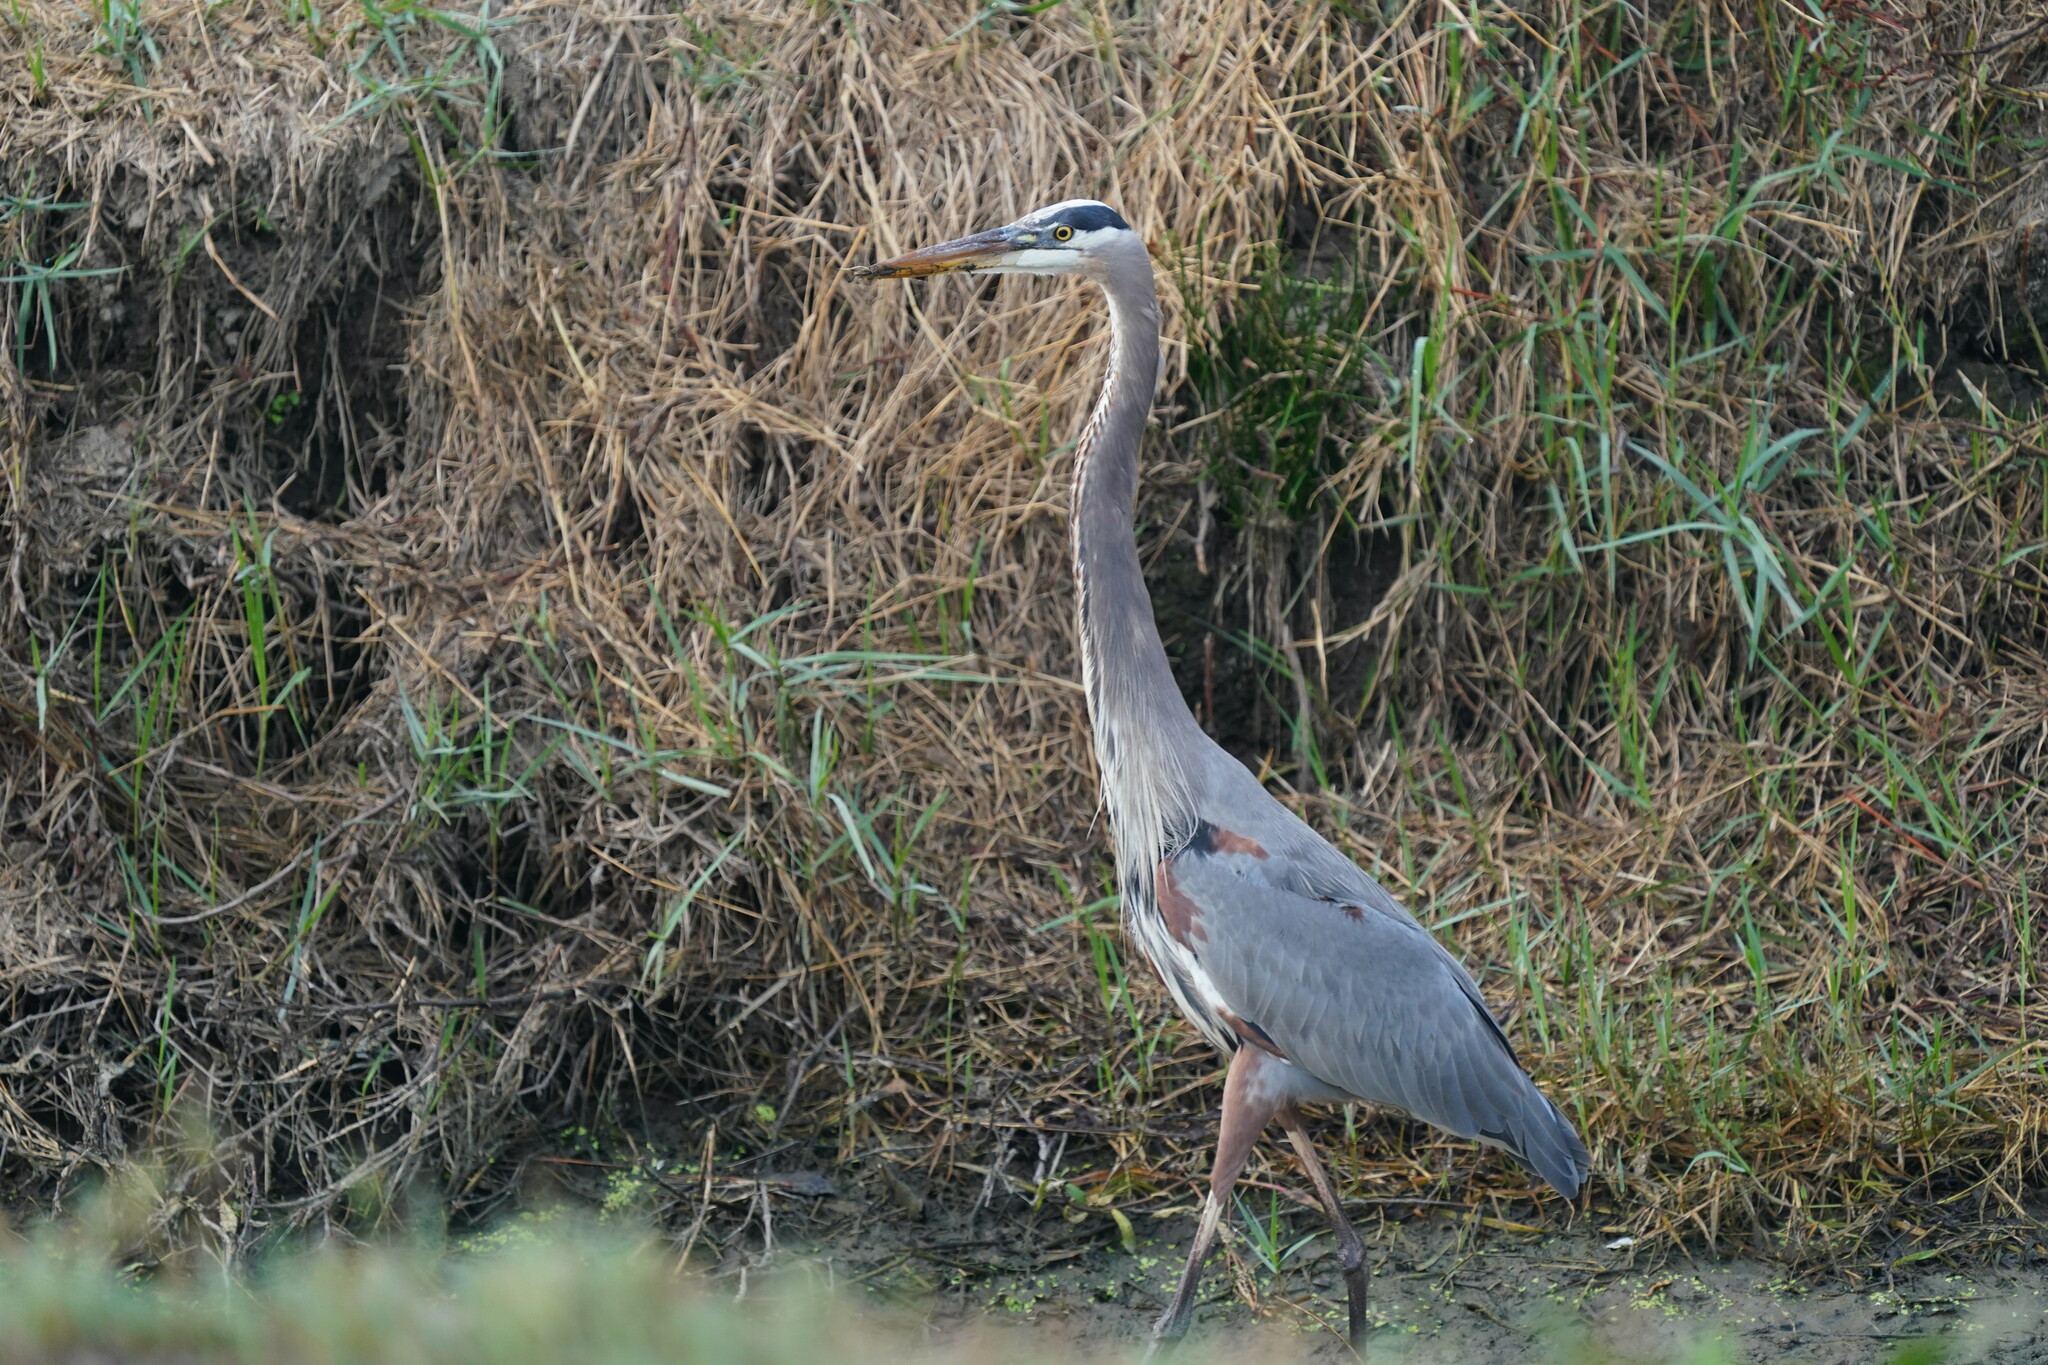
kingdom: Animalia
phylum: Chordata
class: Aves
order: Pelecaniformes
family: Ardeidae
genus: Ardea
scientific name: Ardea herodias
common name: Great blue heron
